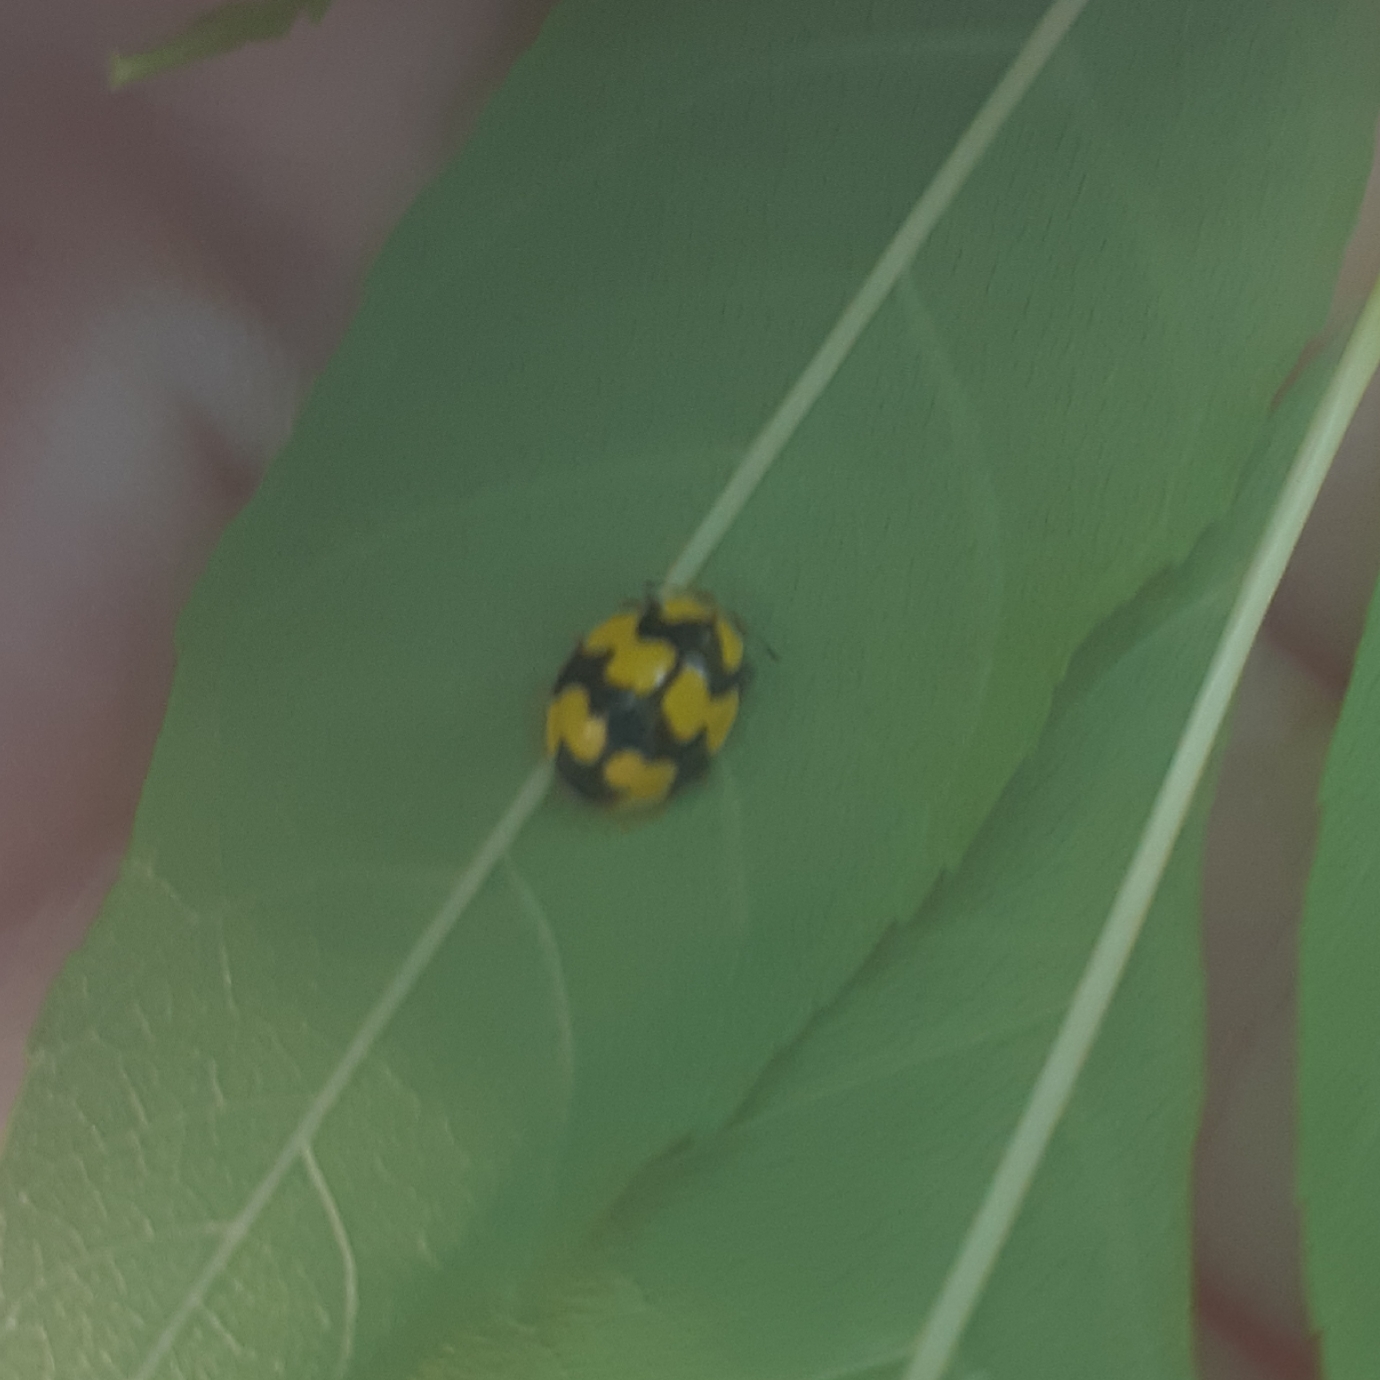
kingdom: Animalia
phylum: Arthropoda
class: Insecta
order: Coleoptera
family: Coccinellidae
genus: Illeis
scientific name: Illeis galbula
